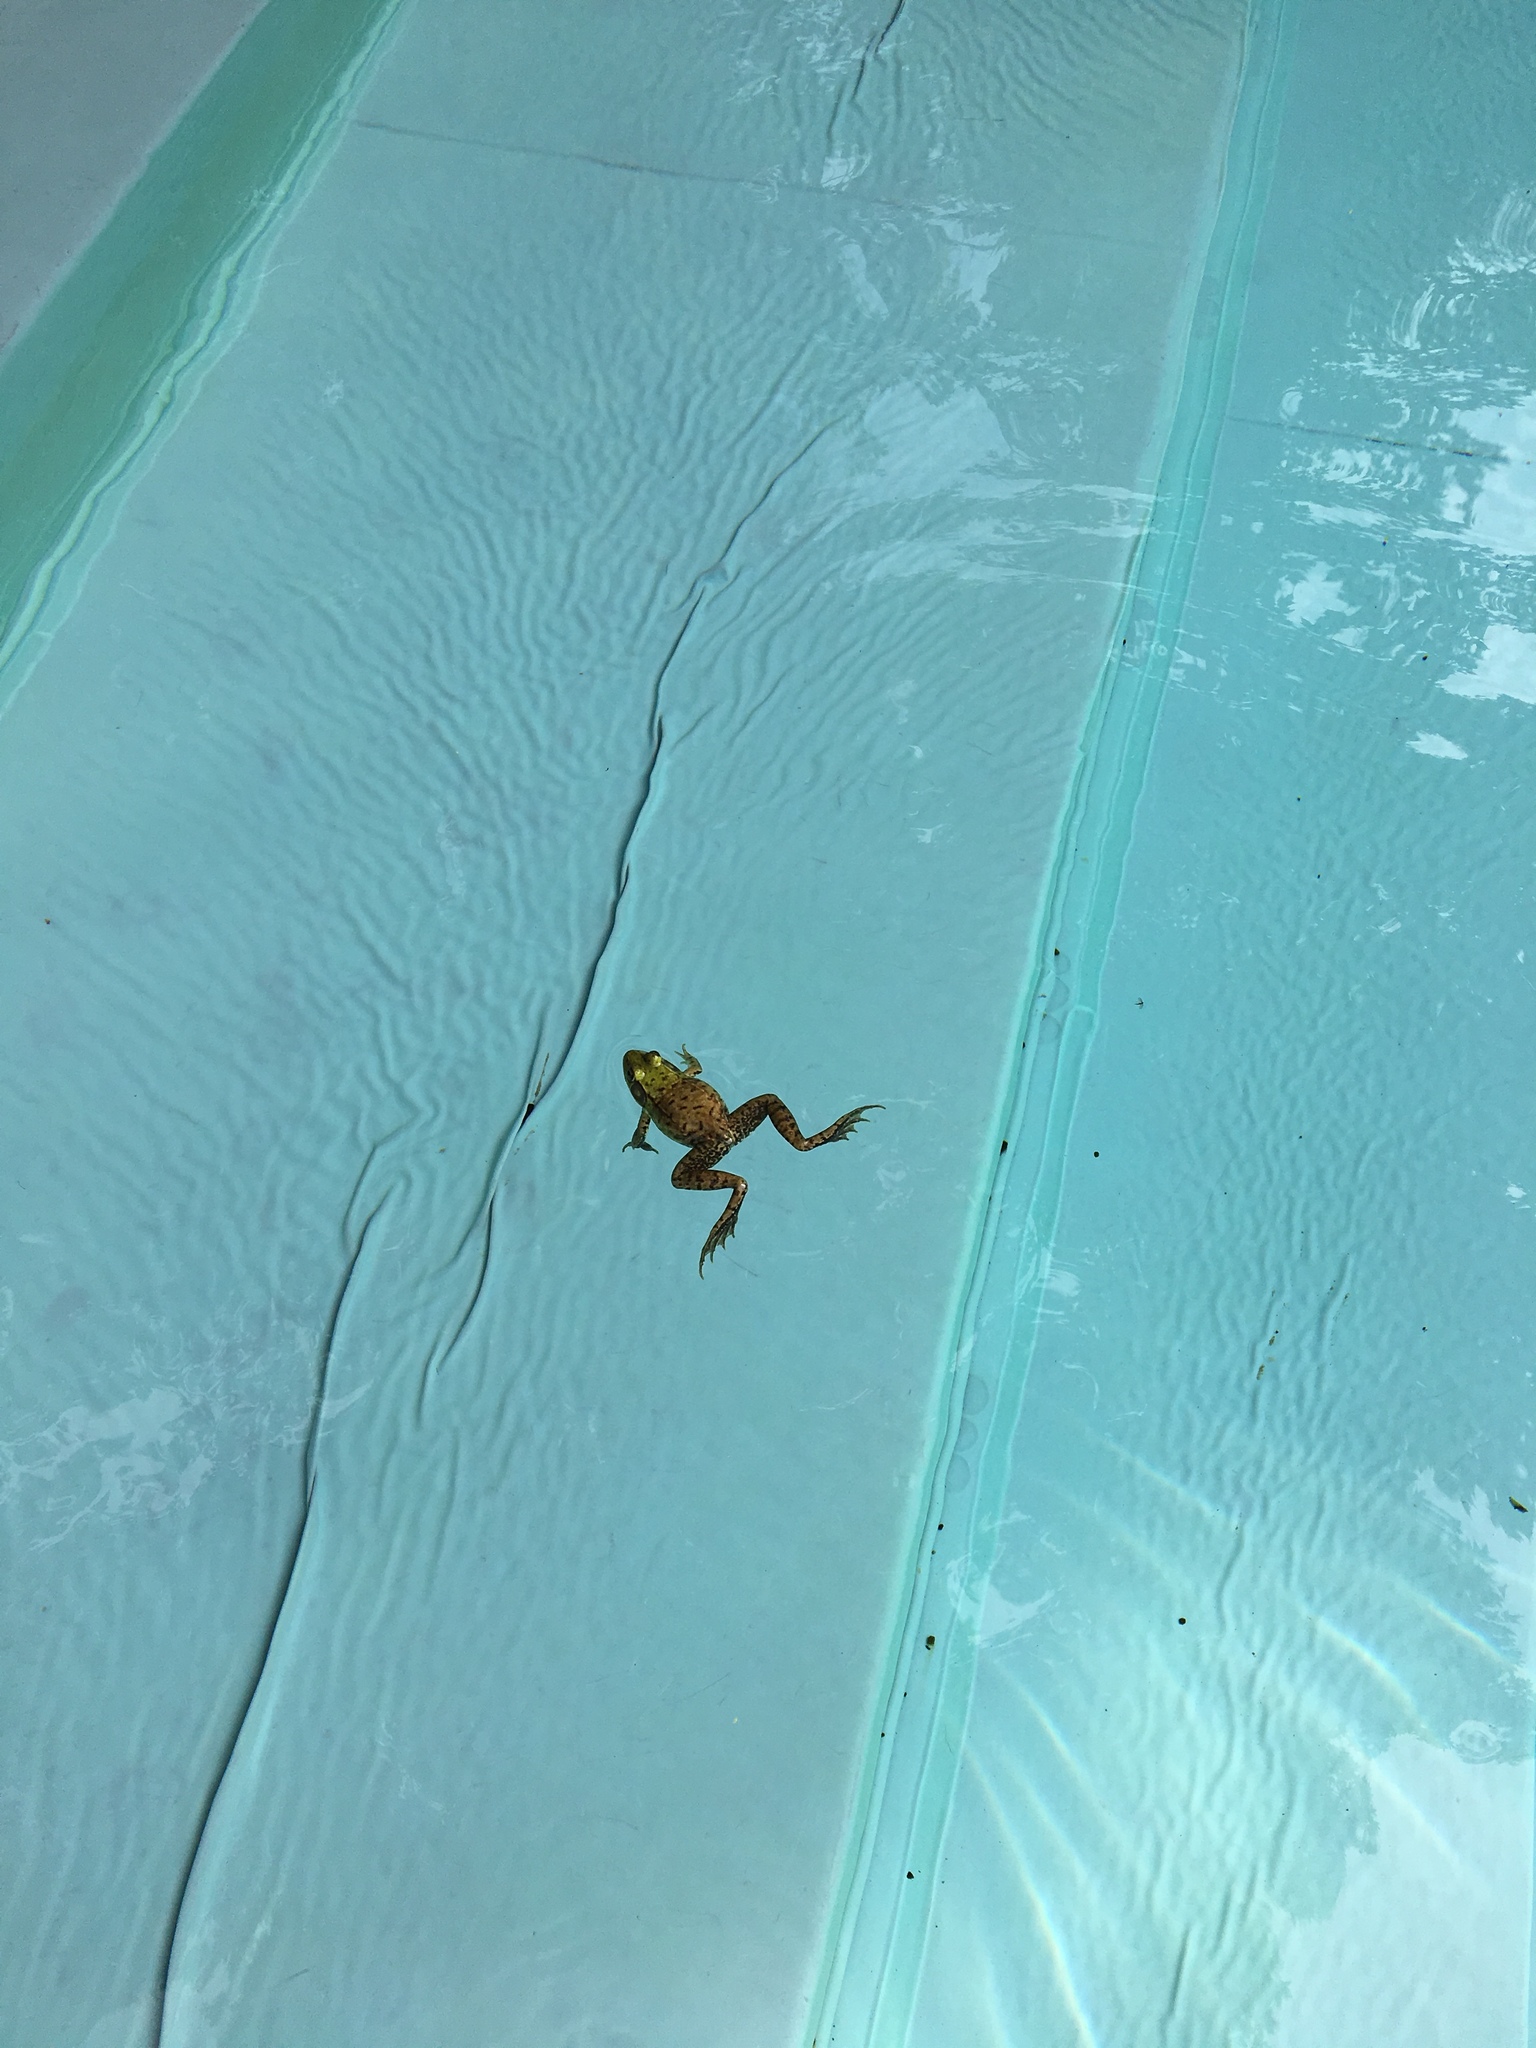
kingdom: Animalia
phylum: Chordata
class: Amphibia
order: Anura
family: Ranidae
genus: Lithobates
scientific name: Lithobates clamitans
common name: Green frog
